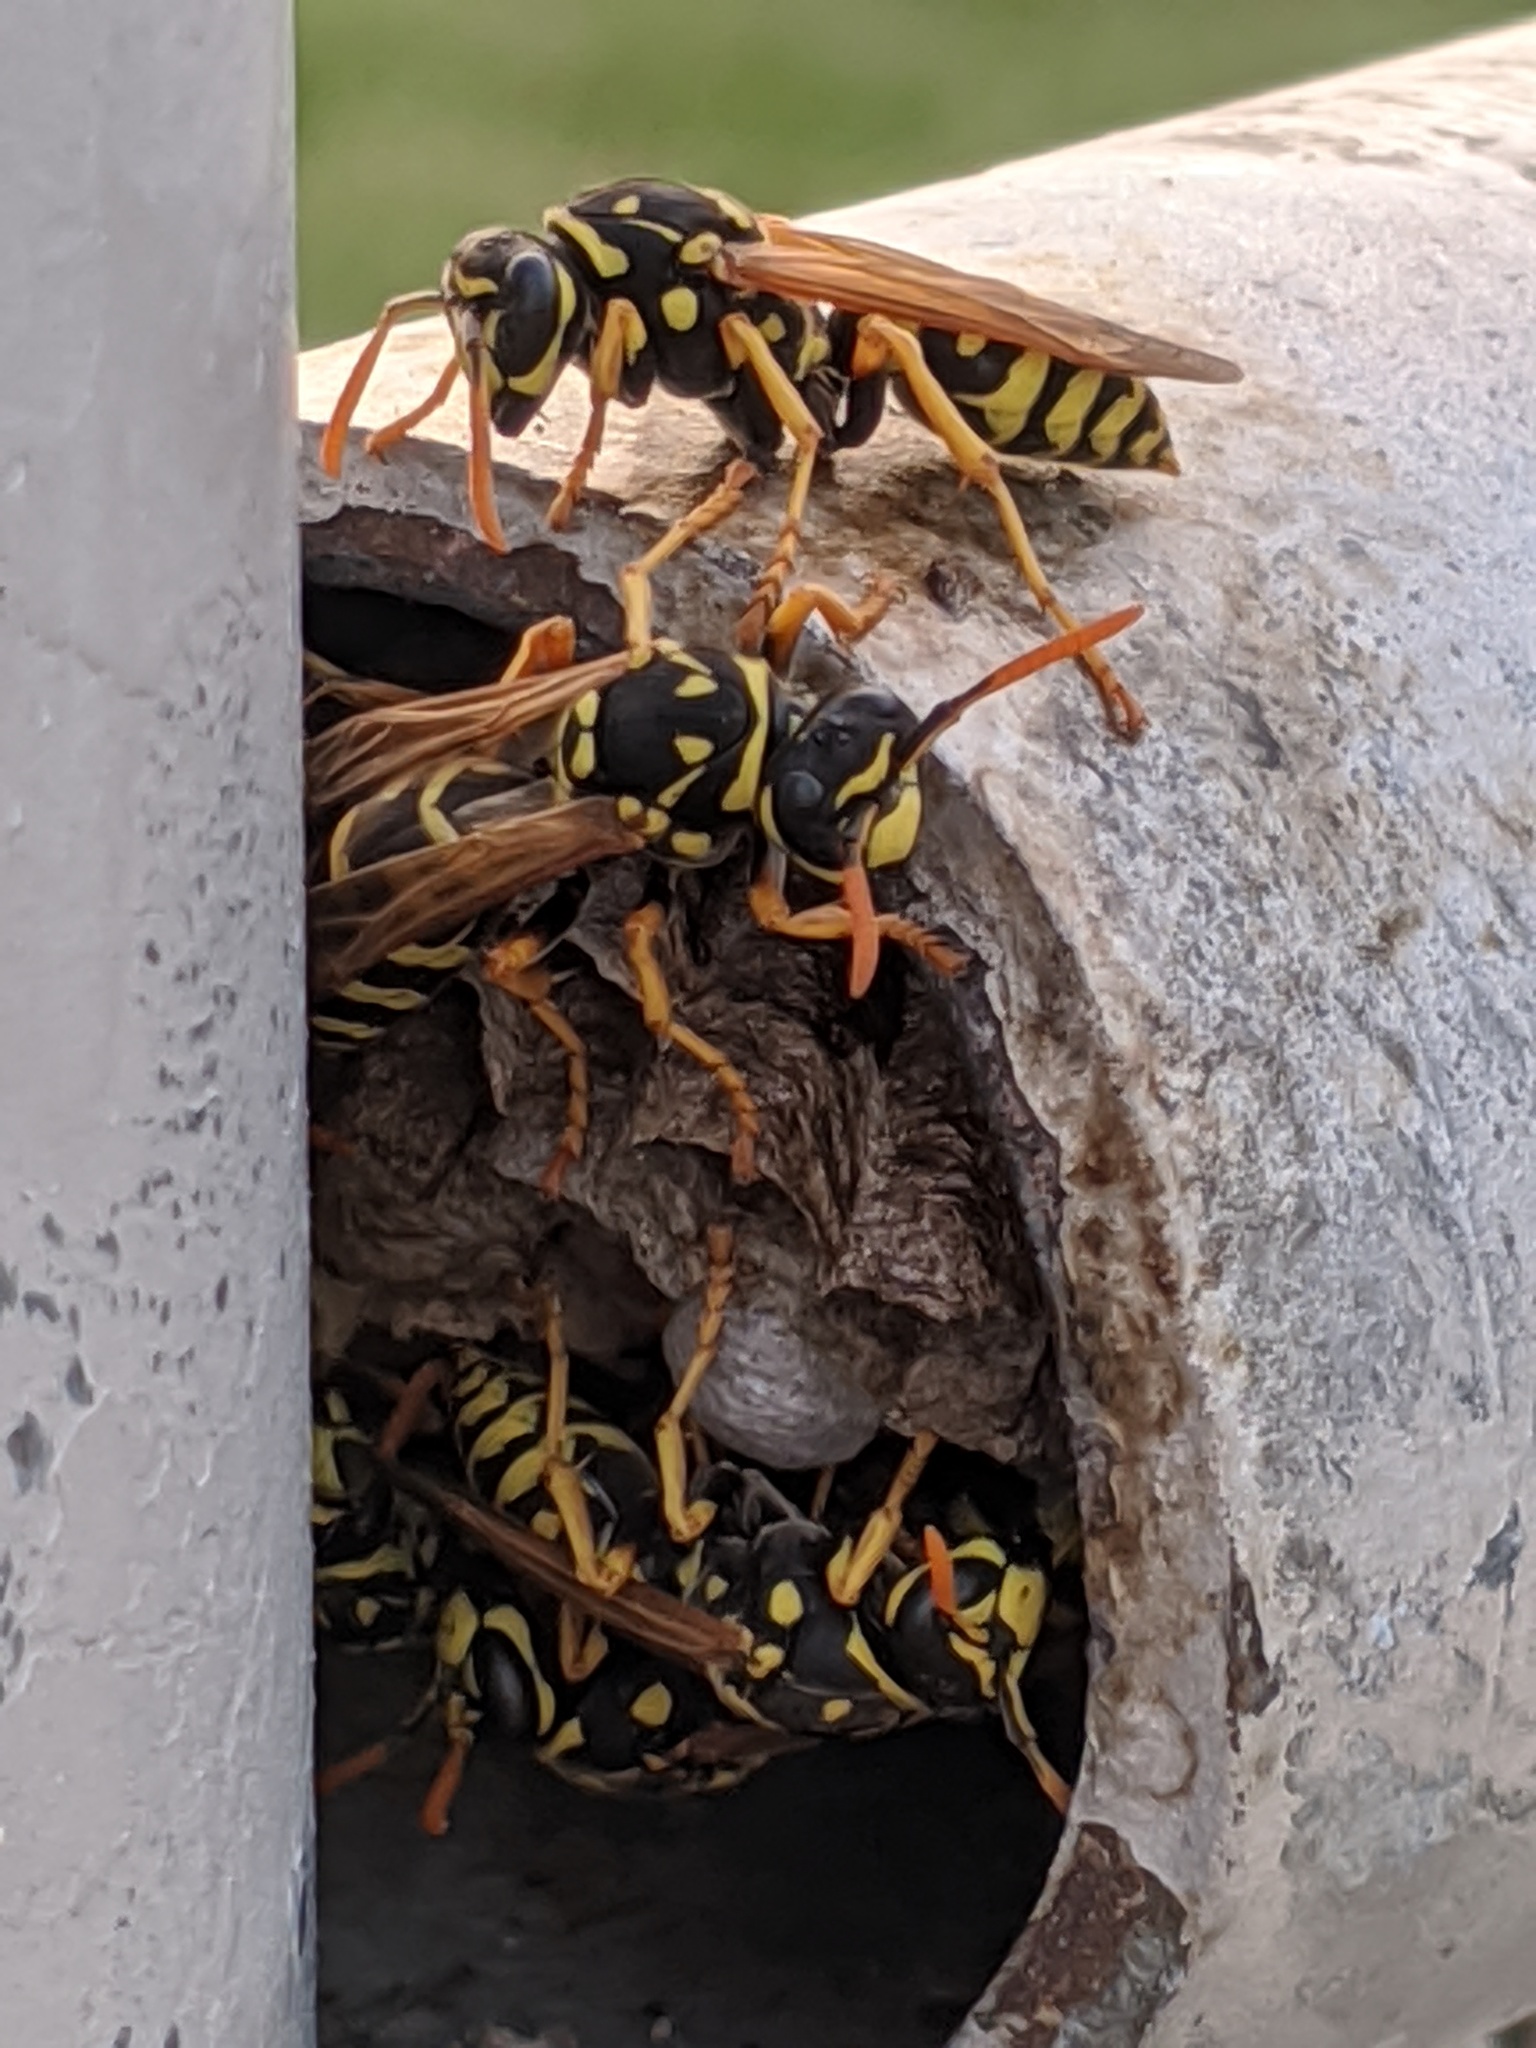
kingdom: Animalia
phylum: Arthropoda
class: Insecta
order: Hymenoptera
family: Eumenidae
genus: Polistes
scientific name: Polistes dominula
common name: Paper wasp
